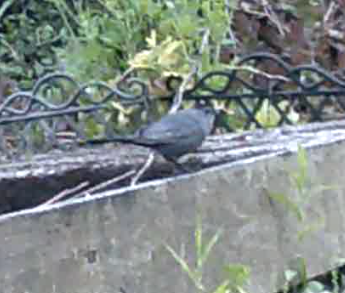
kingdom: Animalia
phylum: Chordata
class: Aves
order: Passeriformes
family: Mimidae
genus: Dumetella
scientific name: Dumetella carolinensis
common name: Gray catbird
